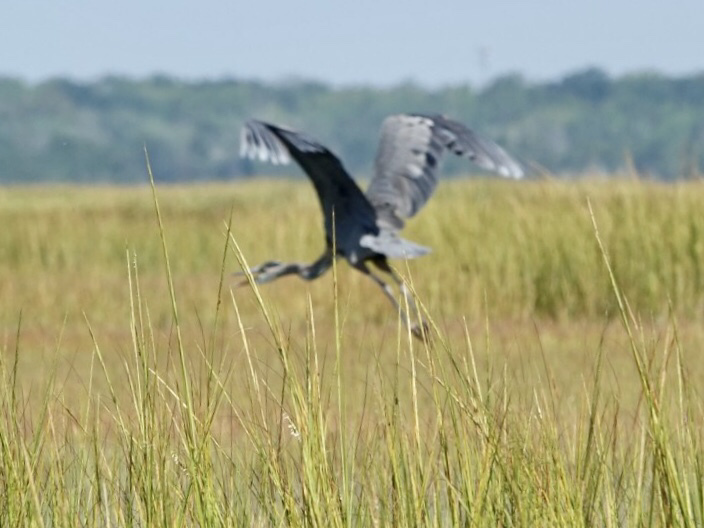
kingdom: Animalia
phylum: Chordata
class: Aves
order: Pelecaniformes
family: Ardeidae
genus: Ardea
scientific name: Ardea herodias
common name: Great blue heron
